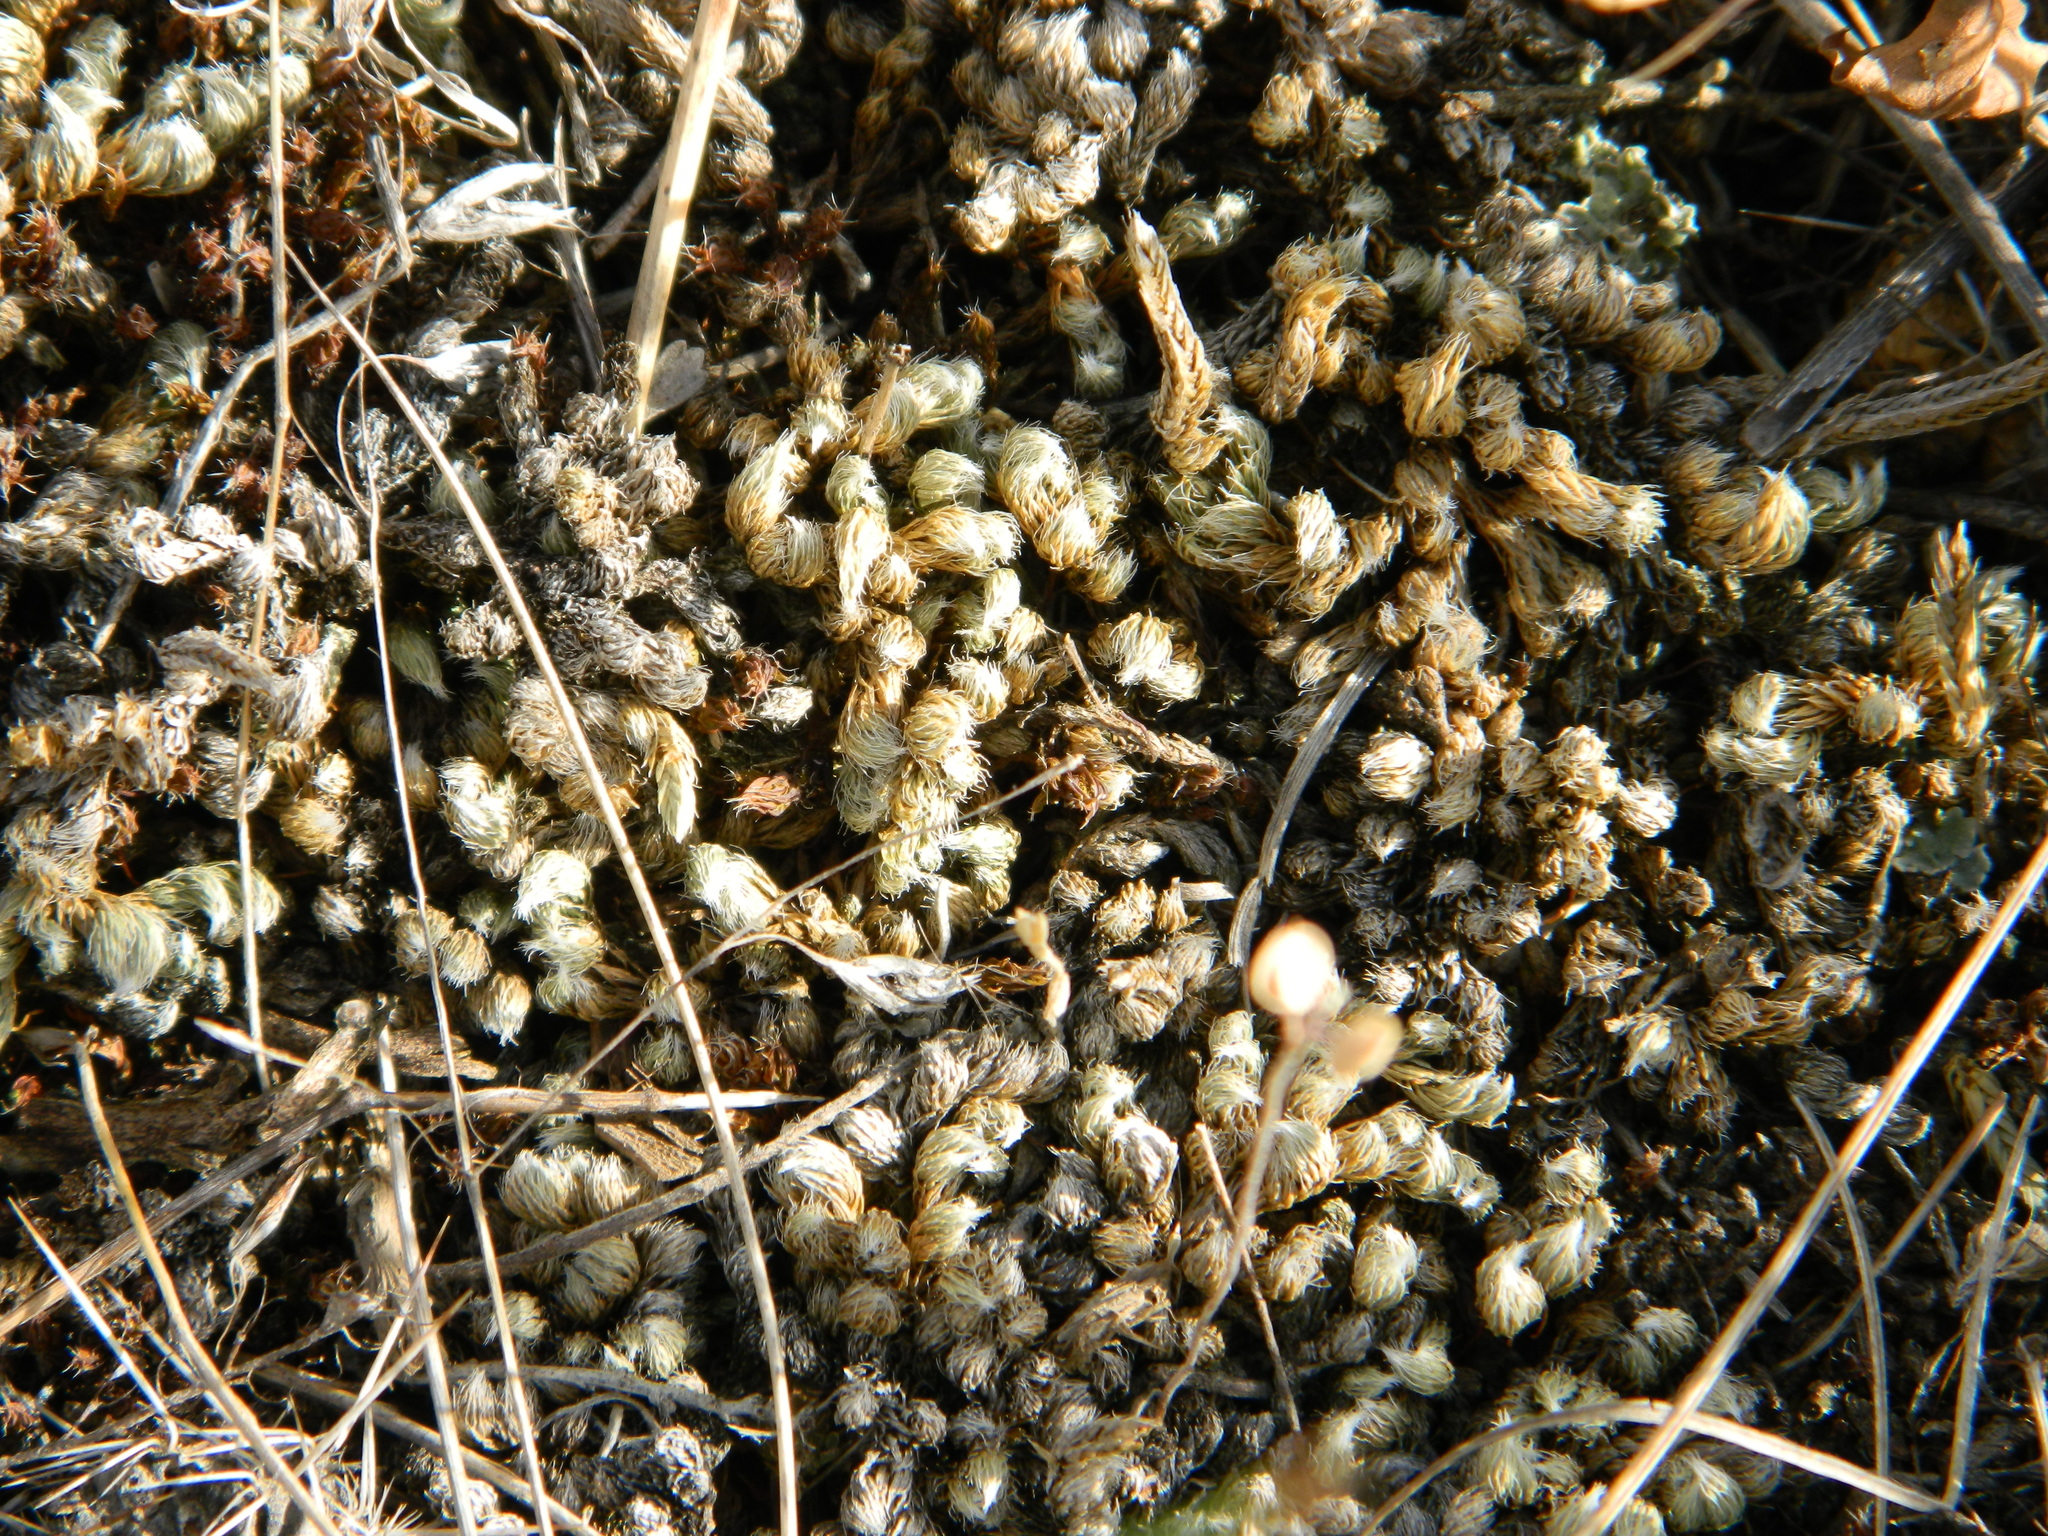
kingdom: Plantae
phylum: Tracheophyta
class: Lycopodiopsida
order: Selaginellales
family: Selaginellaceae
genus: Selaginella
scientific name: Selaginella densa
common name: Mountain spike-moss
